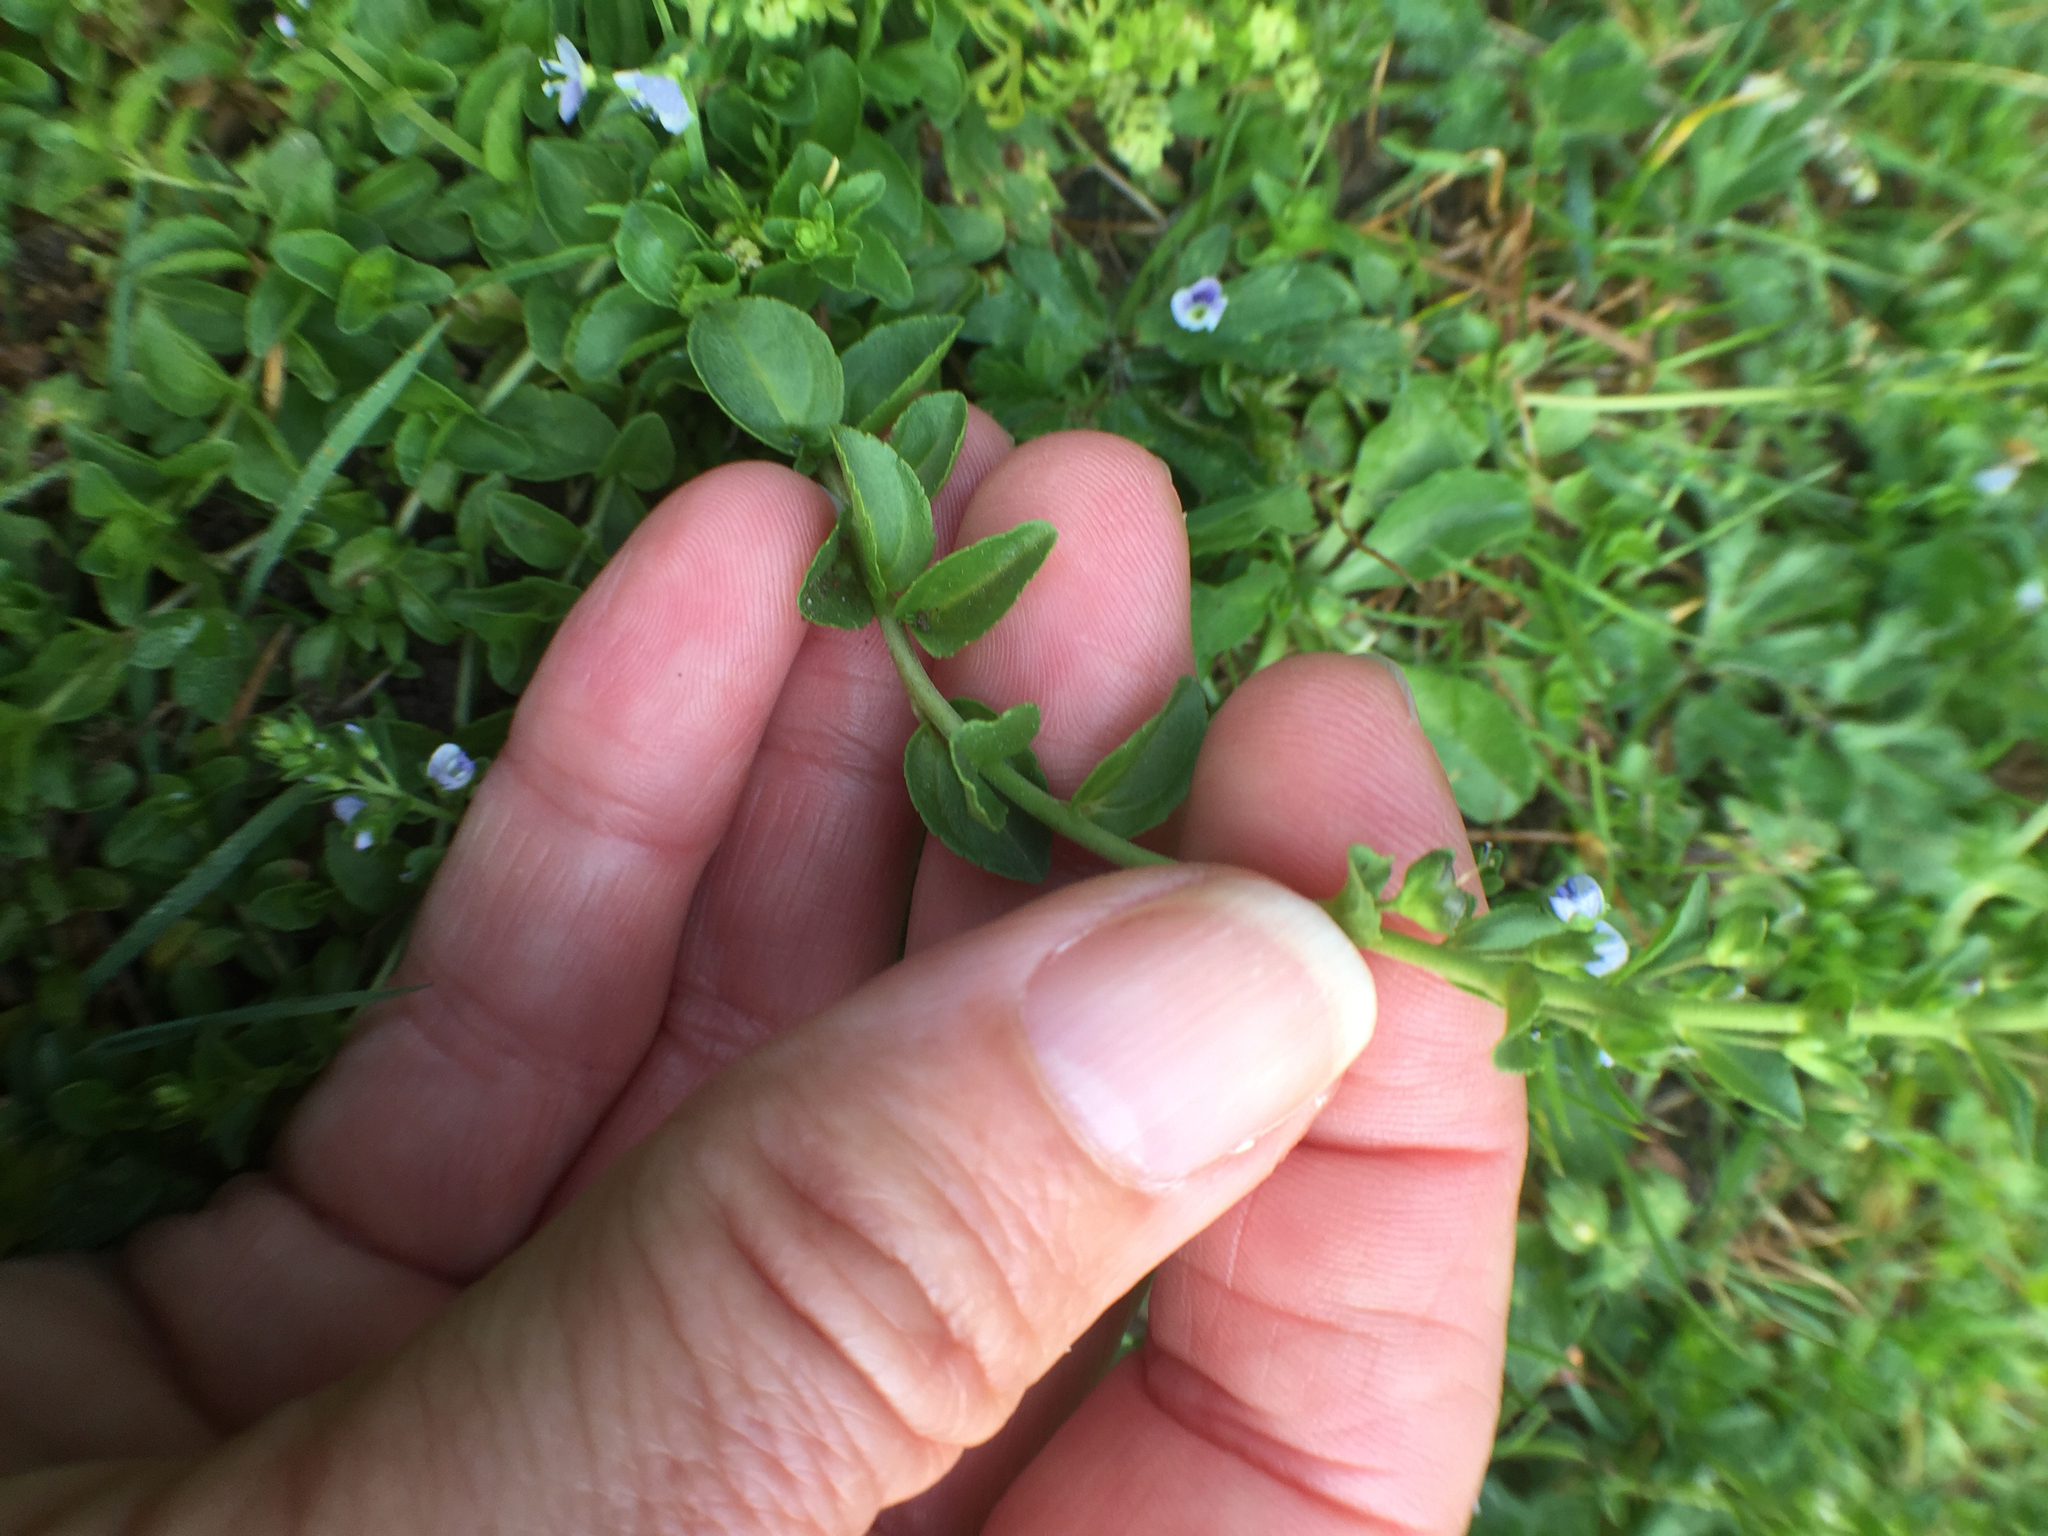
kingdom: Plantae
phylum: Tracheophyta
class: Magnoliopsida
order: Lamiales
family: Plantaginaceae
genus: Veronica
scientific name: Veronica serpyllifolia
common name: Thyme-leaved speedwell
